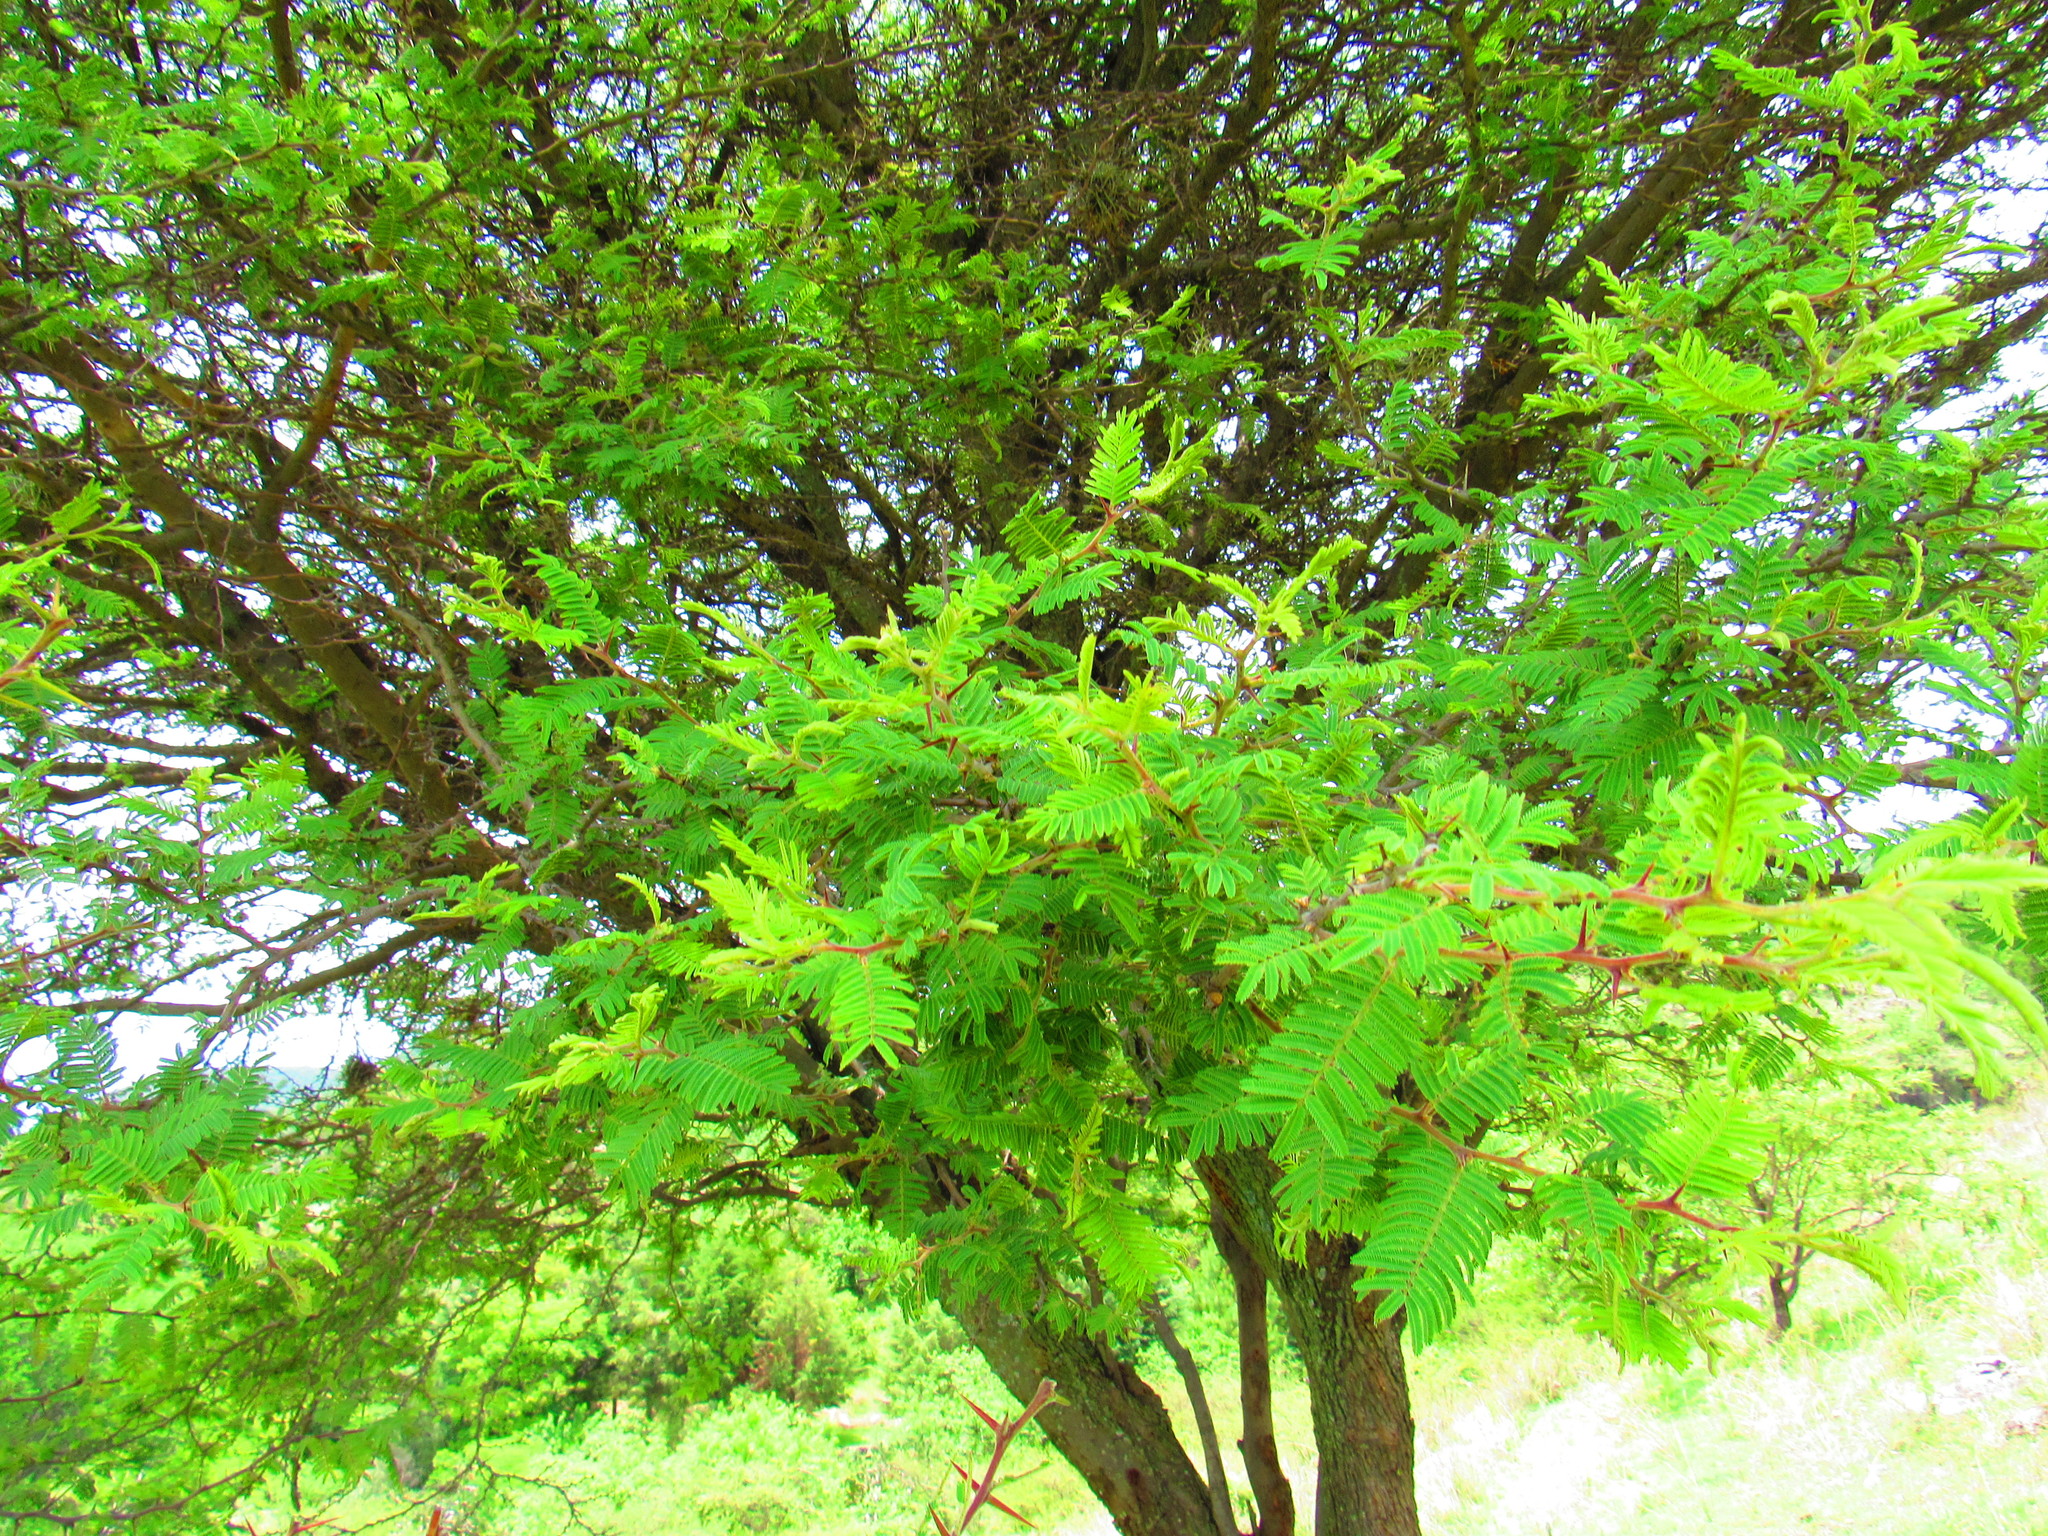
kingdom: Plantae
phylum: Tracheophyta
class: Magnoliopsida
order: Fabales
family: Fabaceae
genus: Vachellia
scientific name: Vachellia pennatula
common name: Fern-leaf acacia
